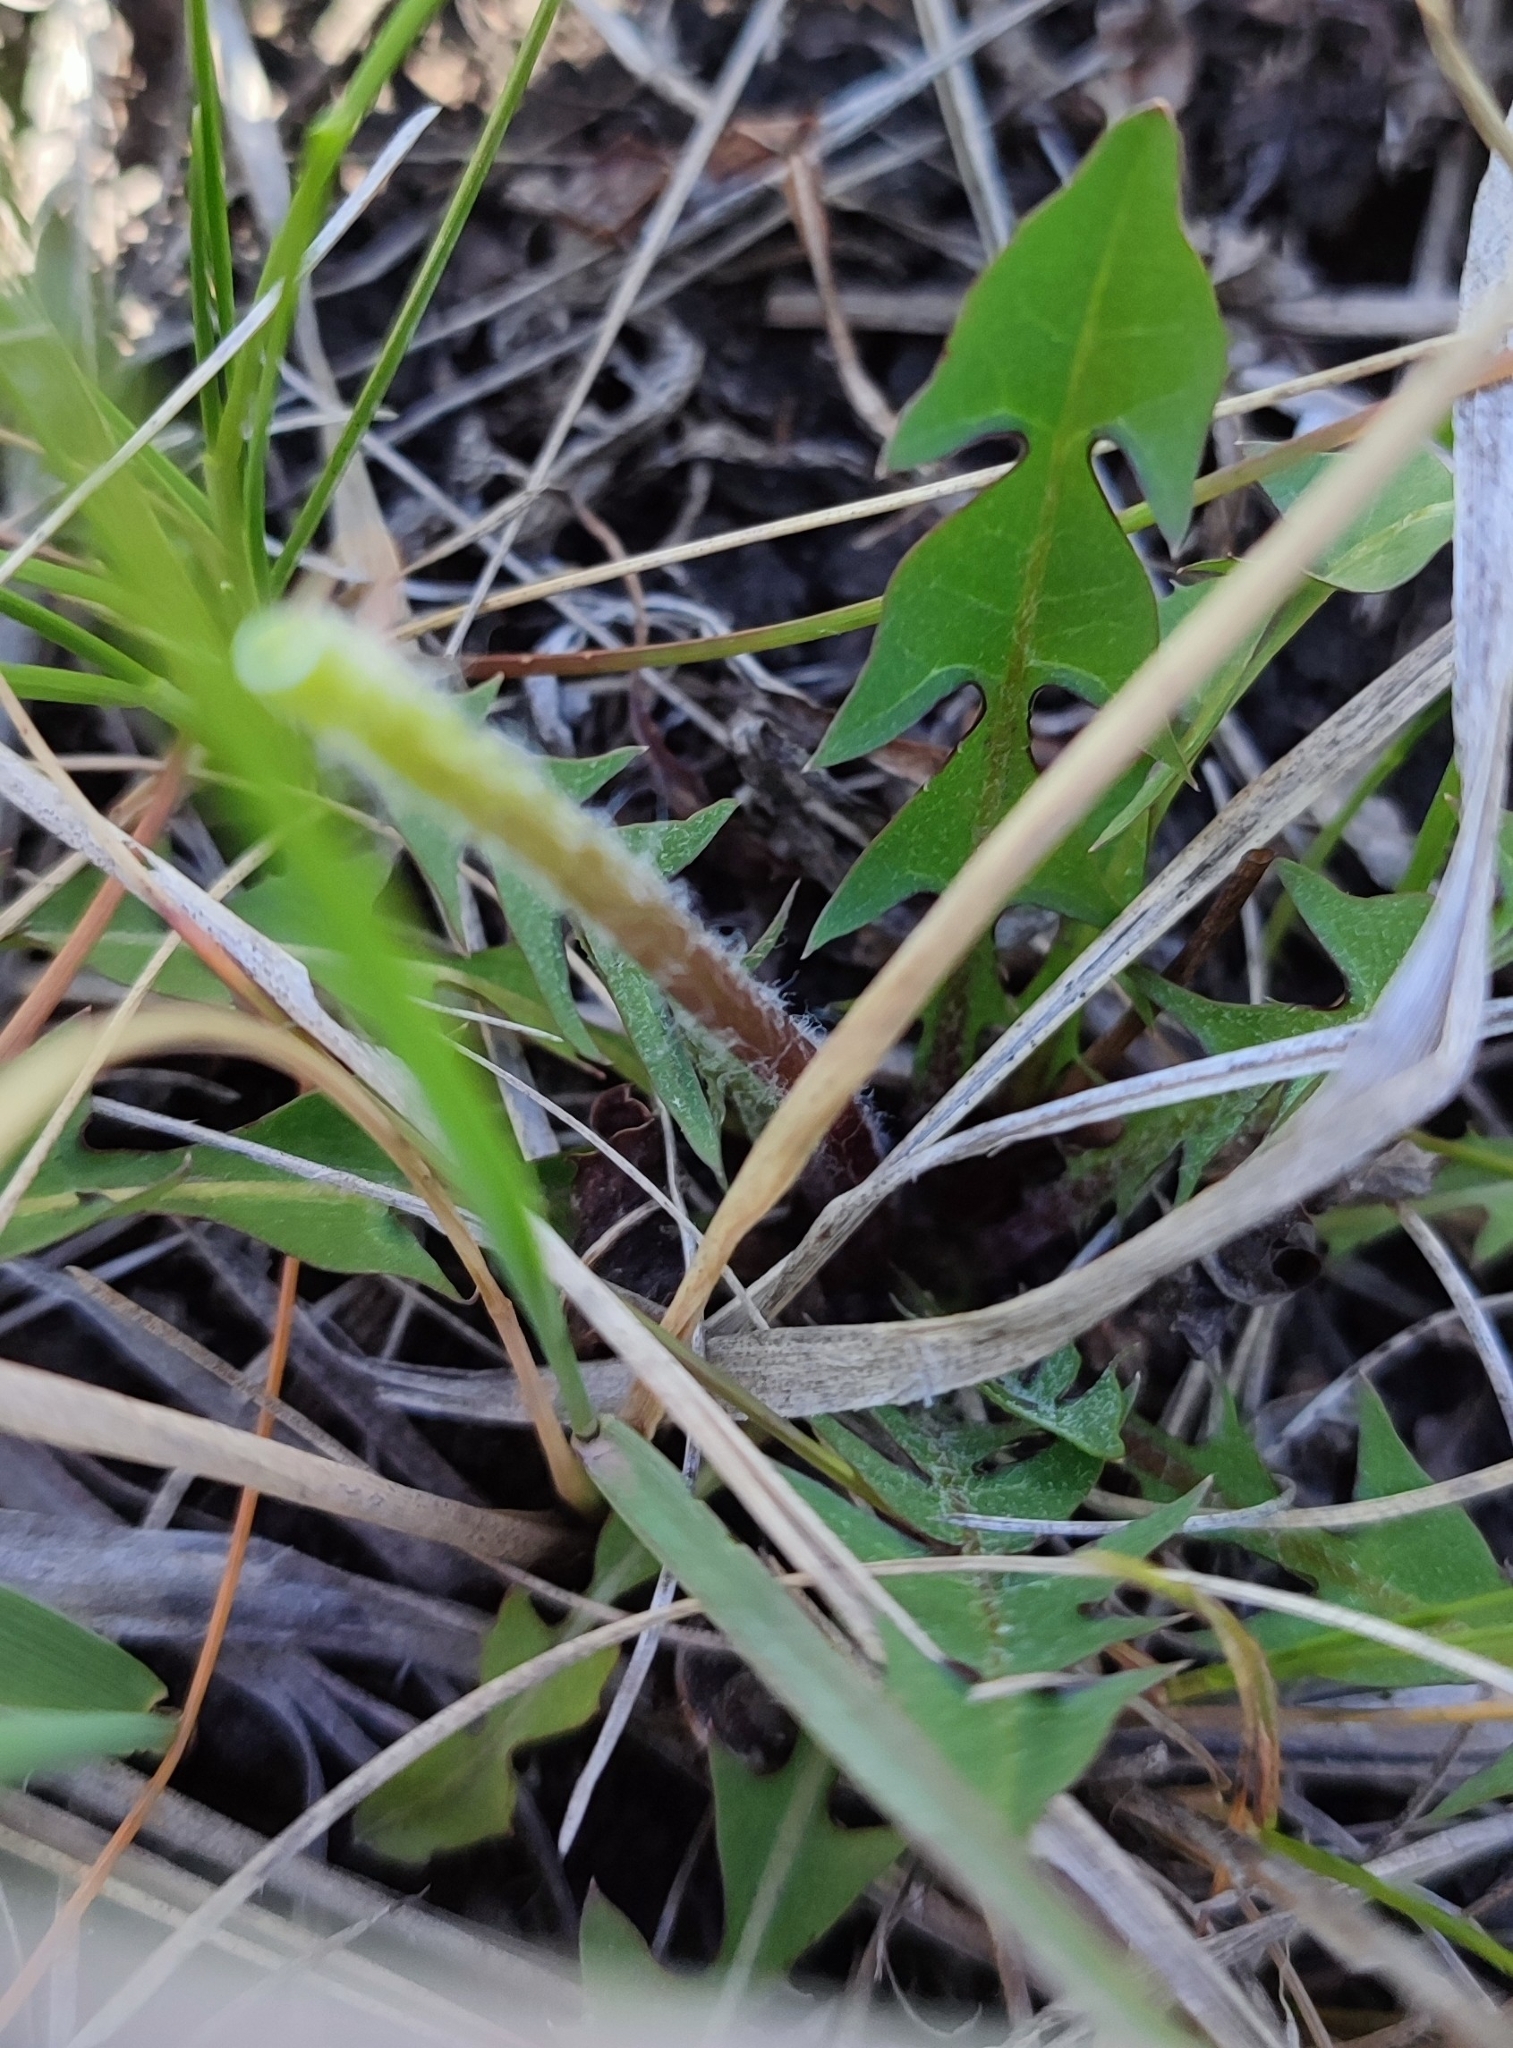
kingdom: Plantae
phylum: Tracheophyta
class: Magnoliopsida
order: Asterales
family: Asteraceae
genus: Taraxacum
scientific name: Taraxacum officinale
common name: Common dandelion
